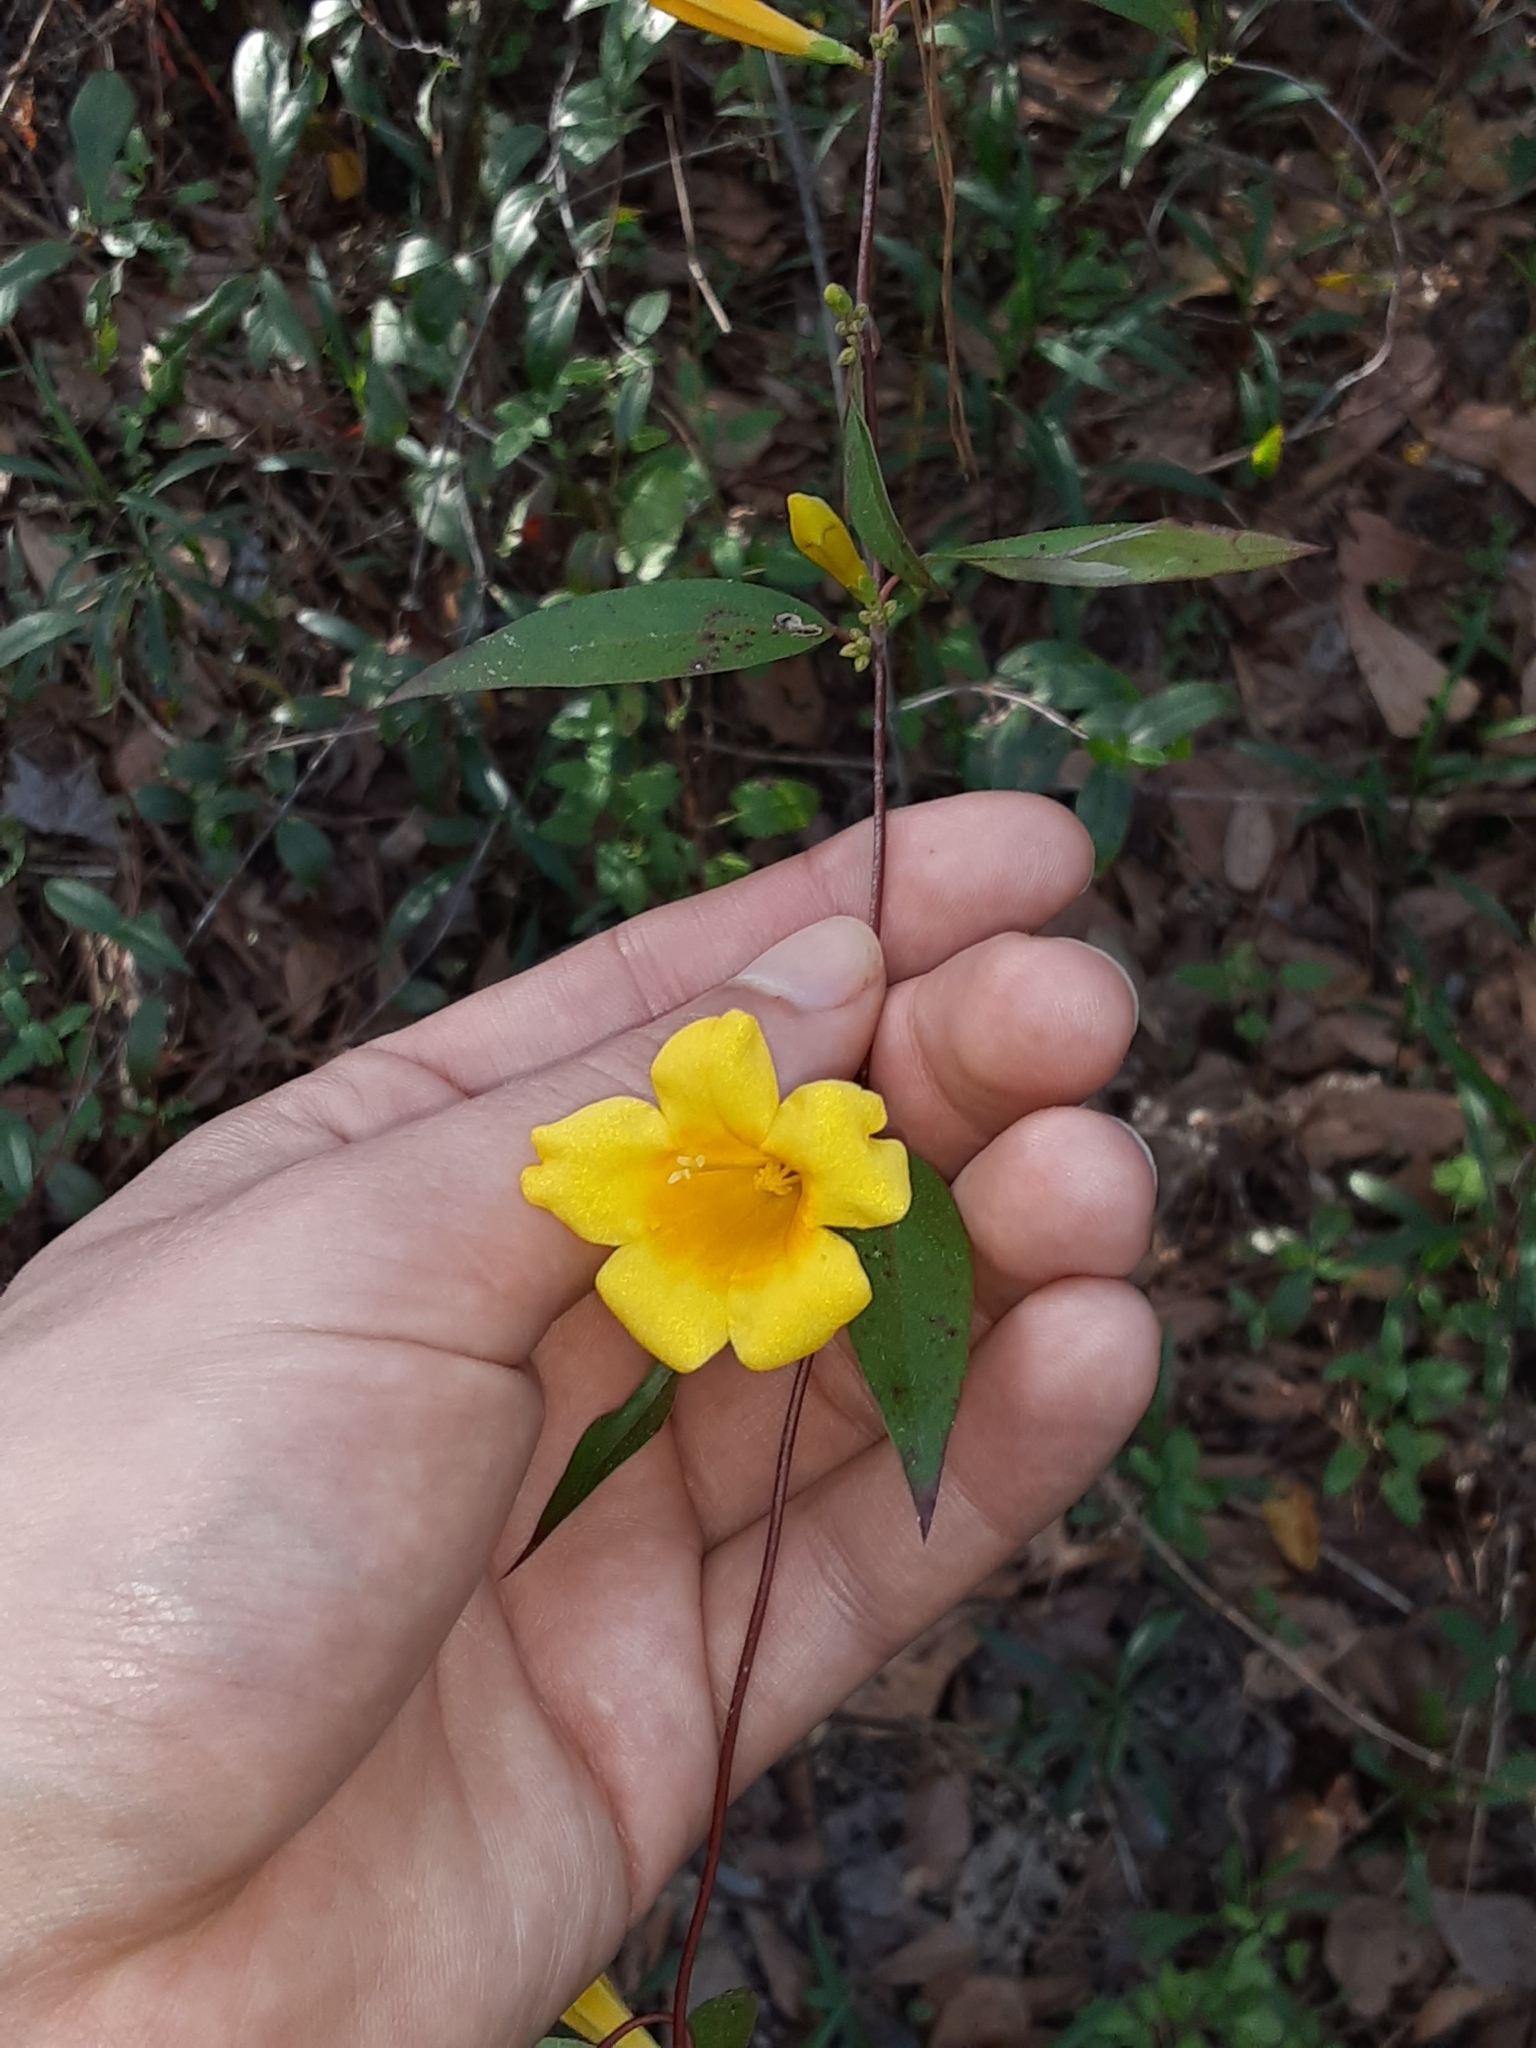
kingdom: Plantae
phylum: Tracheophyta
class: Magnoliopsida
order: Gentianales
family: Gelsemiaceae
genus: Gelsemium
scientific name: Gelsemium sempervirens
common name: Carolina-jasmine
